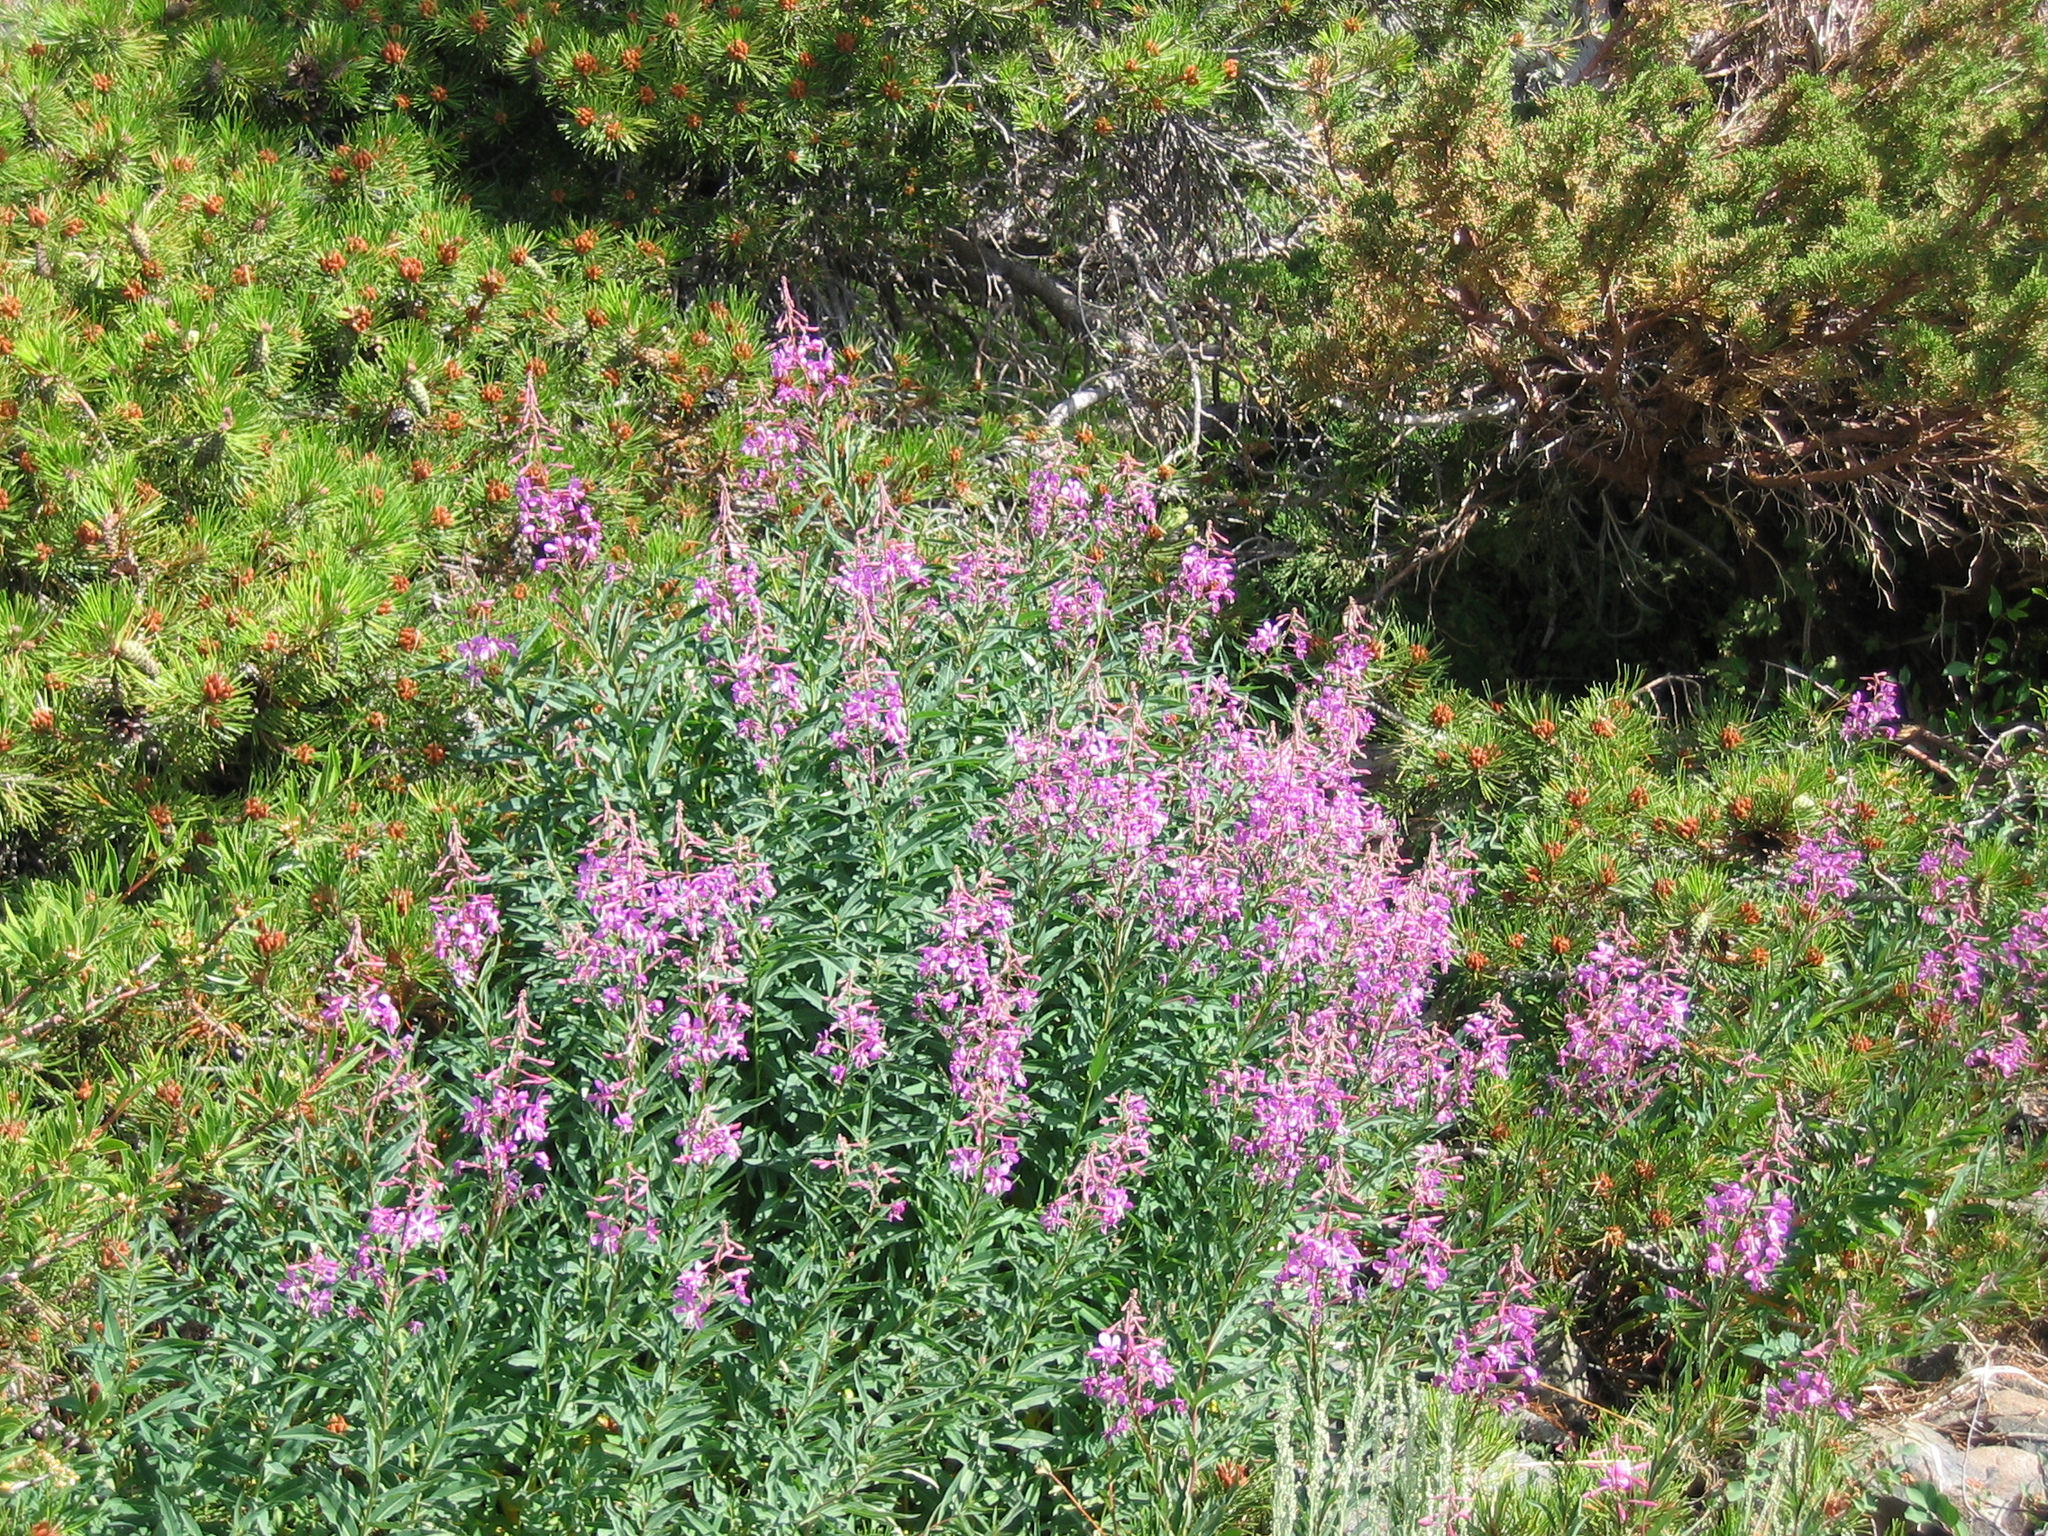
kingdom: Plantae
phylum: Tracheophyta
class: Magnoliopsida
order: Myrtales
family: Onagraceae
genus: Chamaenerion
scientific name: Chamaenerion angustifolium
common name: Fireweed
